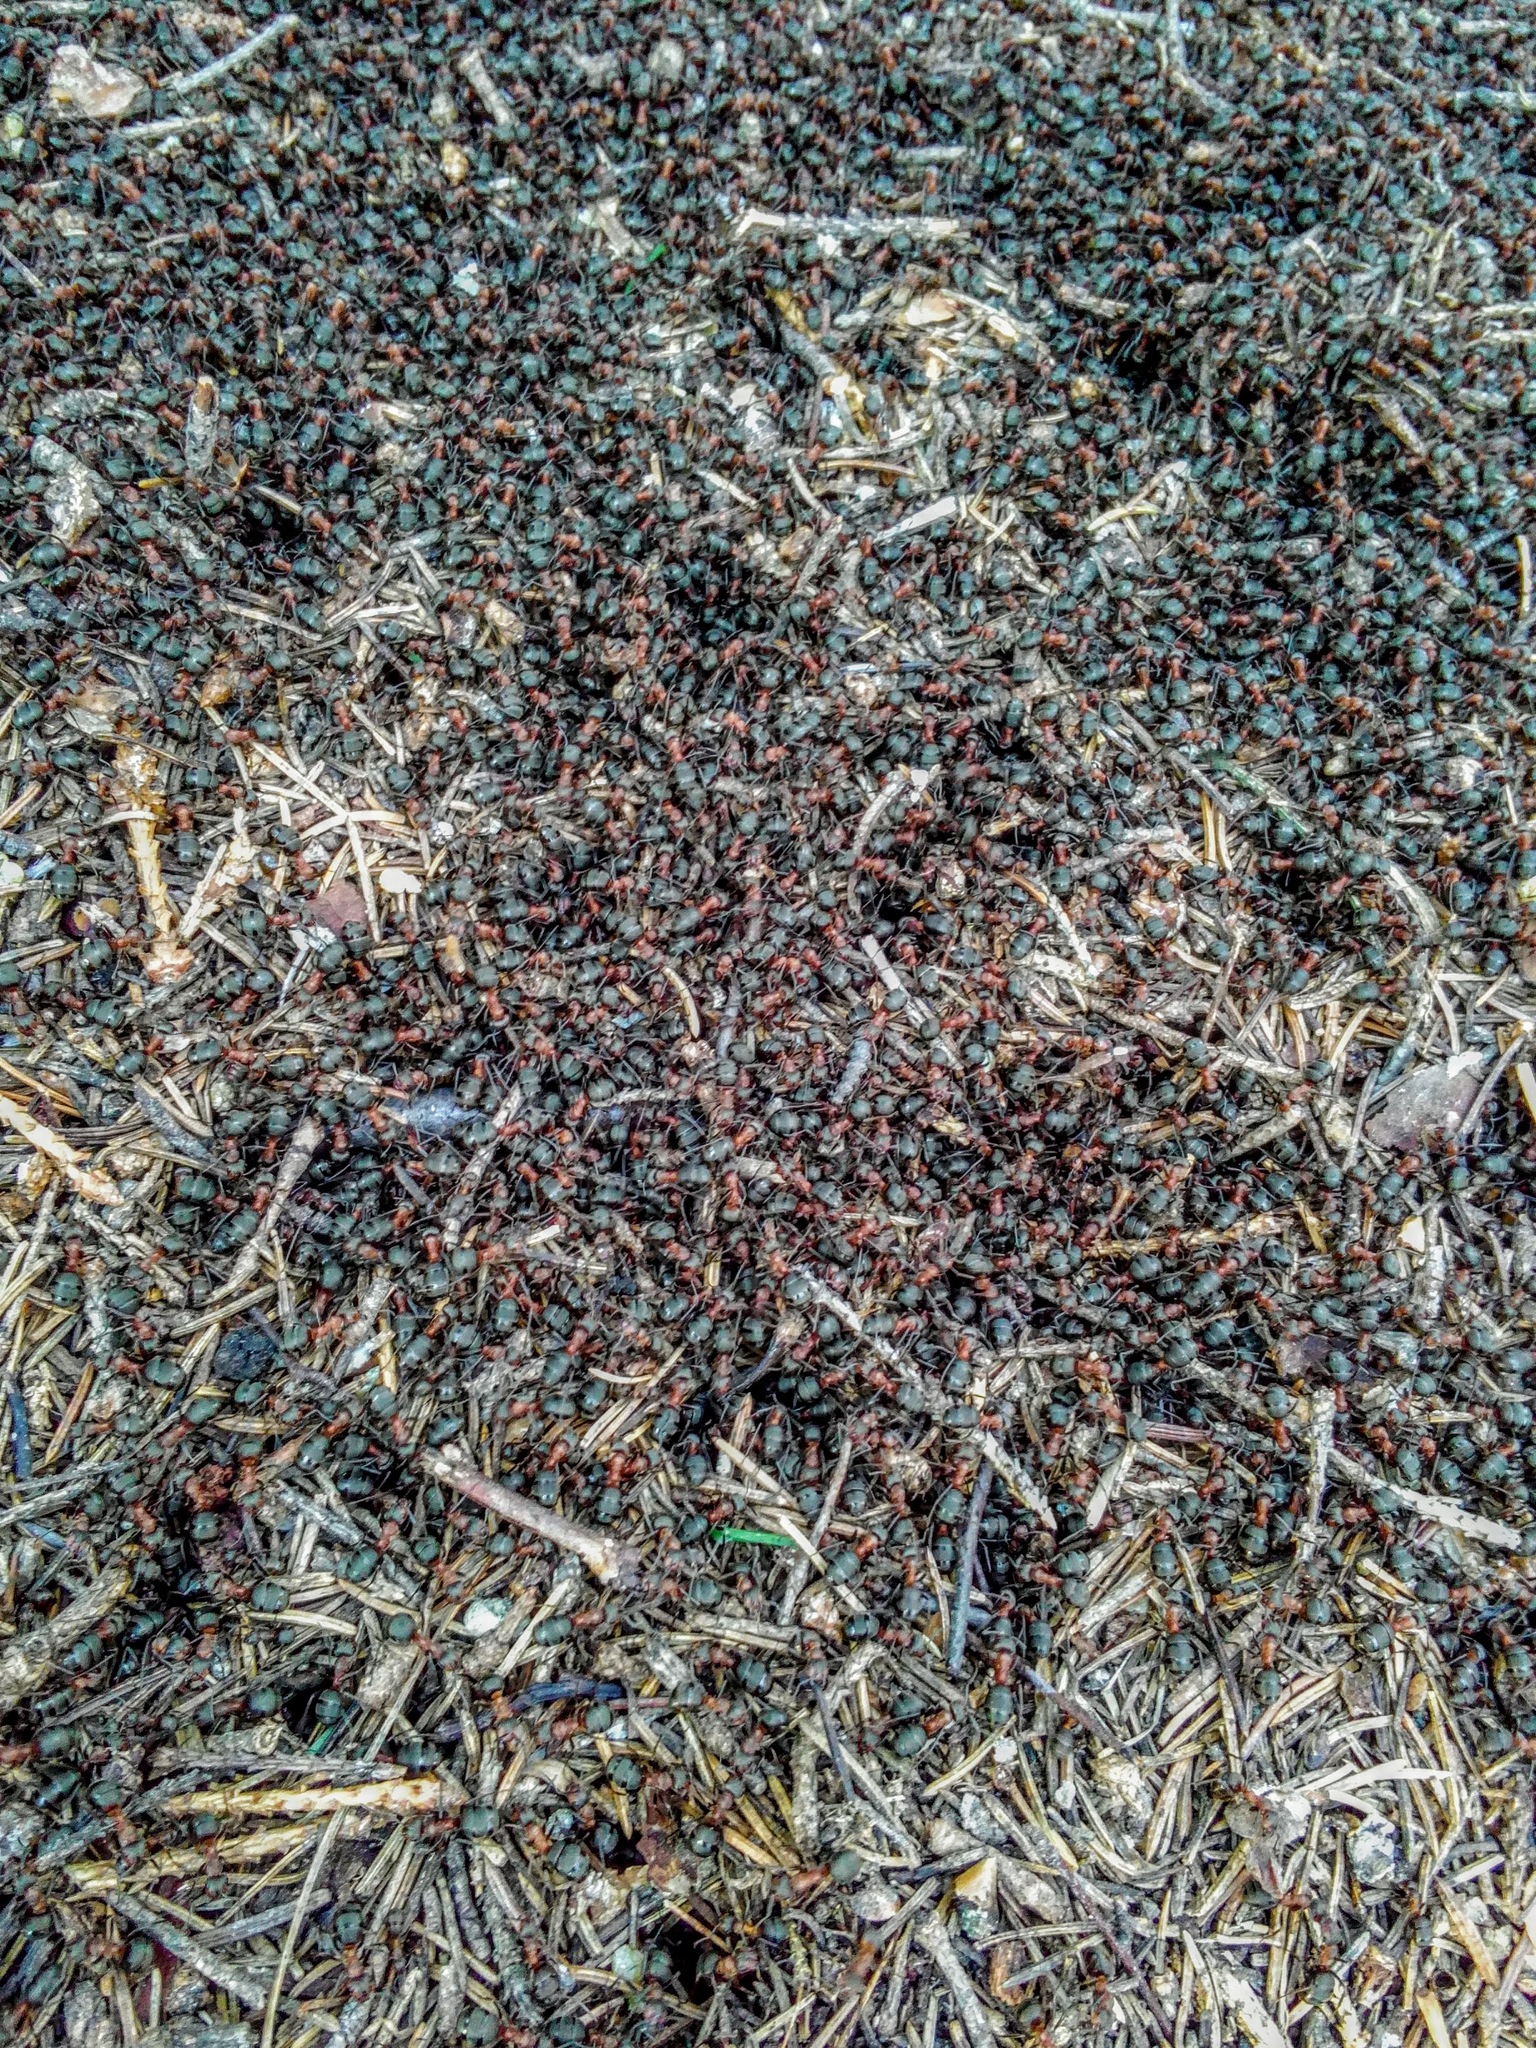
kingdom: Animalia
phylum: Arthropoda
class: Insecta
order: Hymenoptera
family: Formicidae
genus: Formica
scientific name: Formica rufa
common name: Red wood ant
